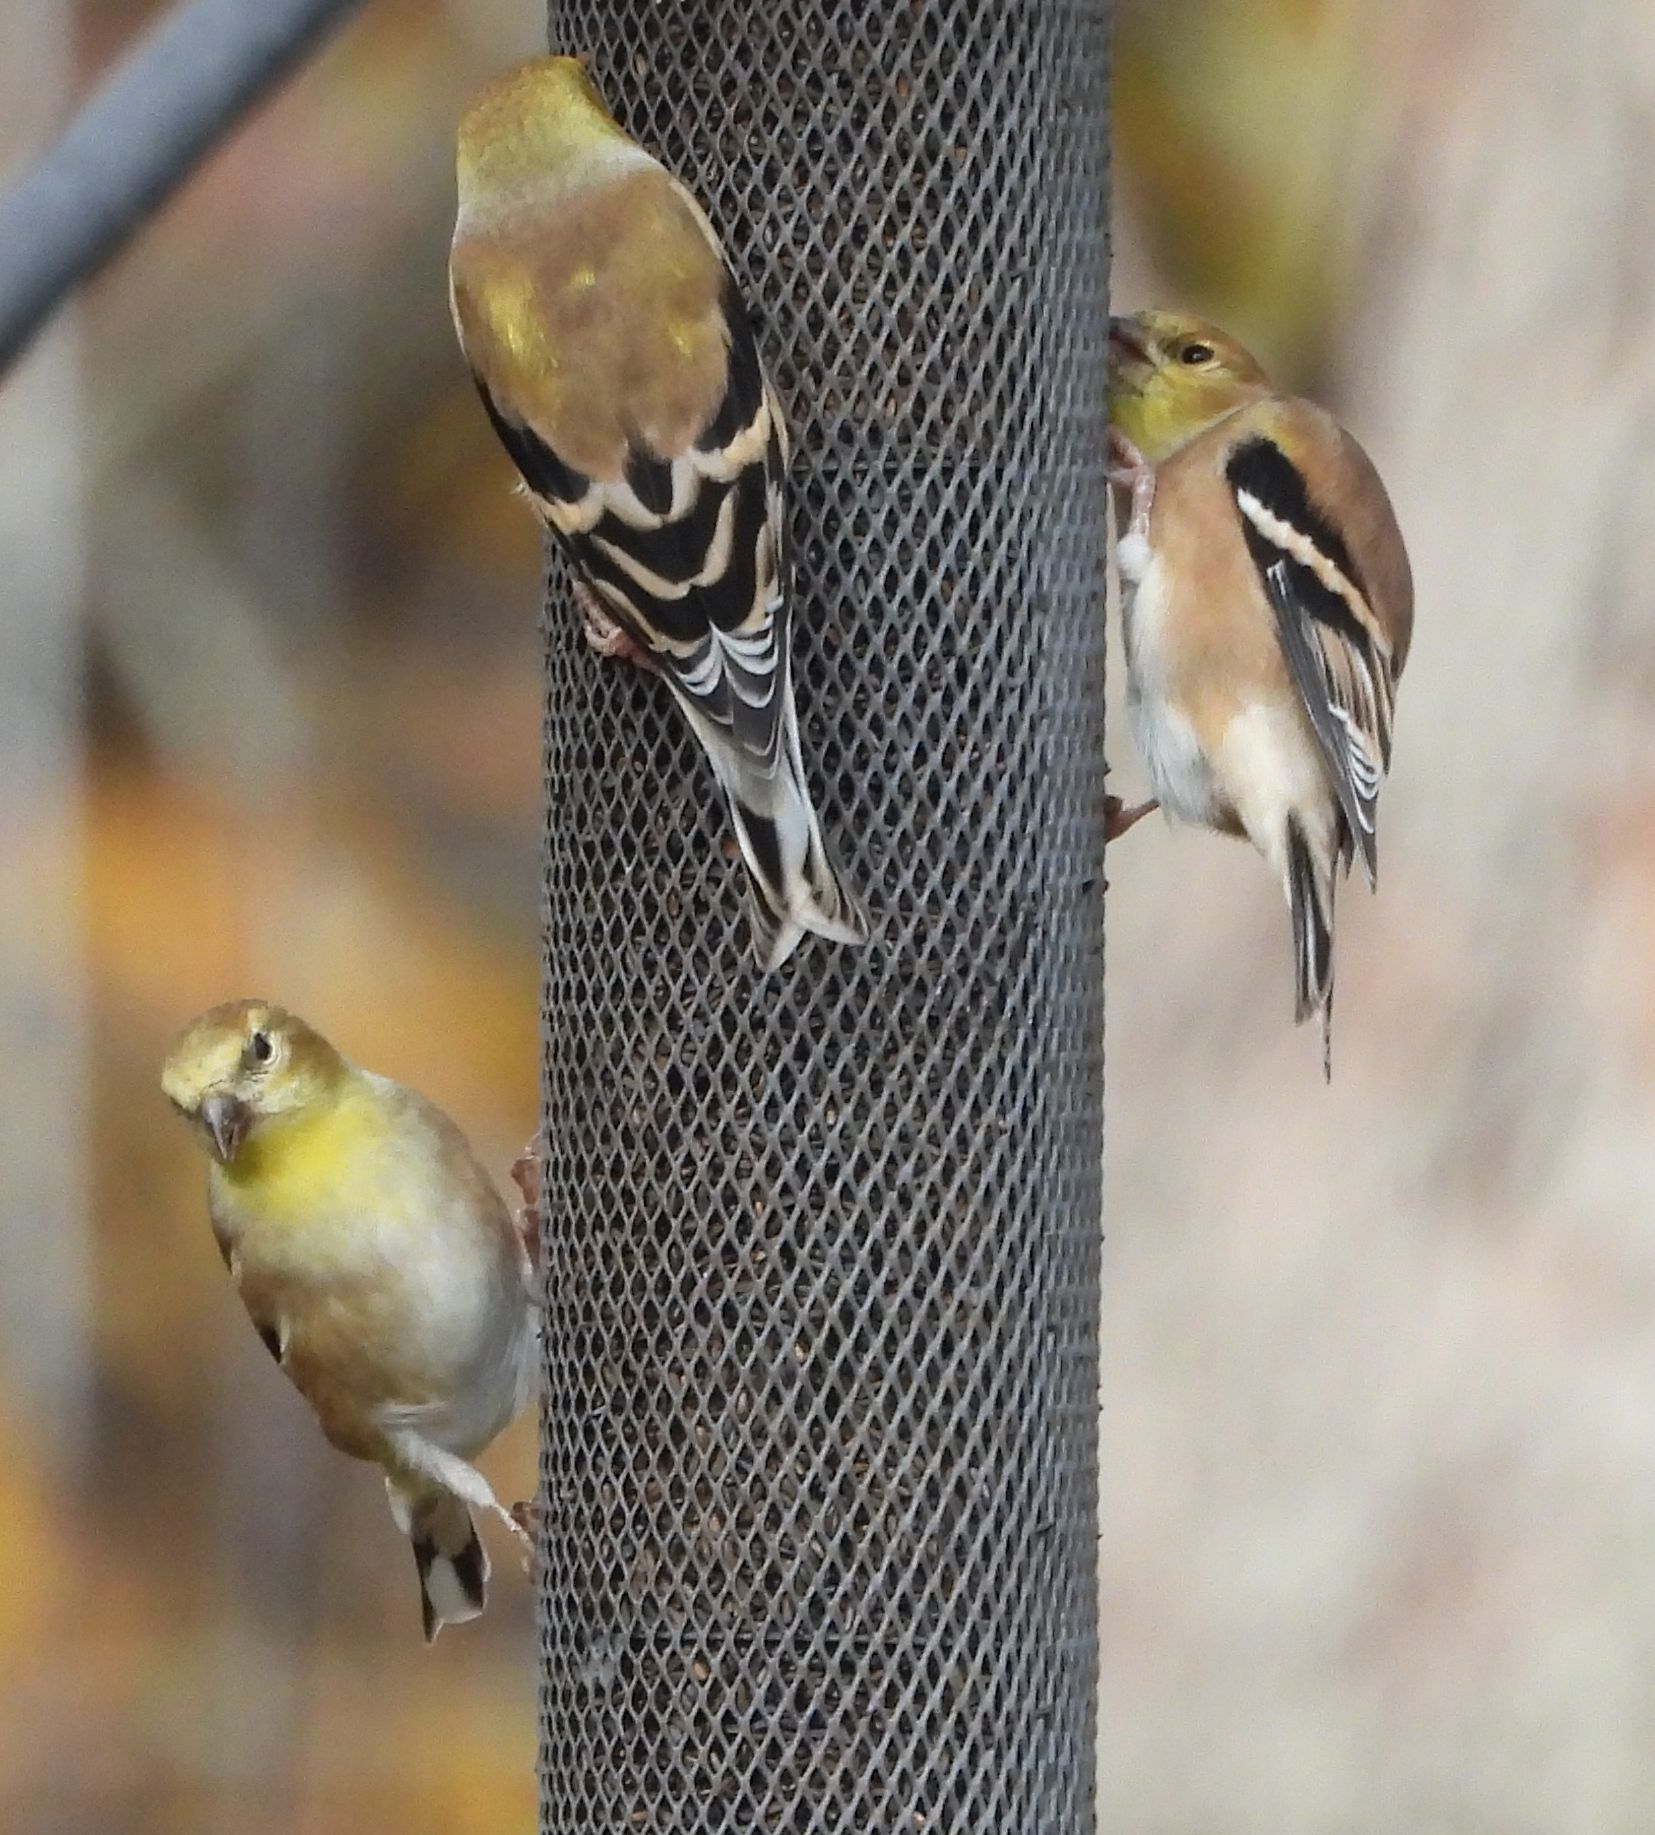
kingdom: Animalia
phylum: Chordata
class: Aves
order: Passeriformes
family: Fringillidae
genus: Spinus
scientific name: Spinus tristis
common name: American goldfinch
